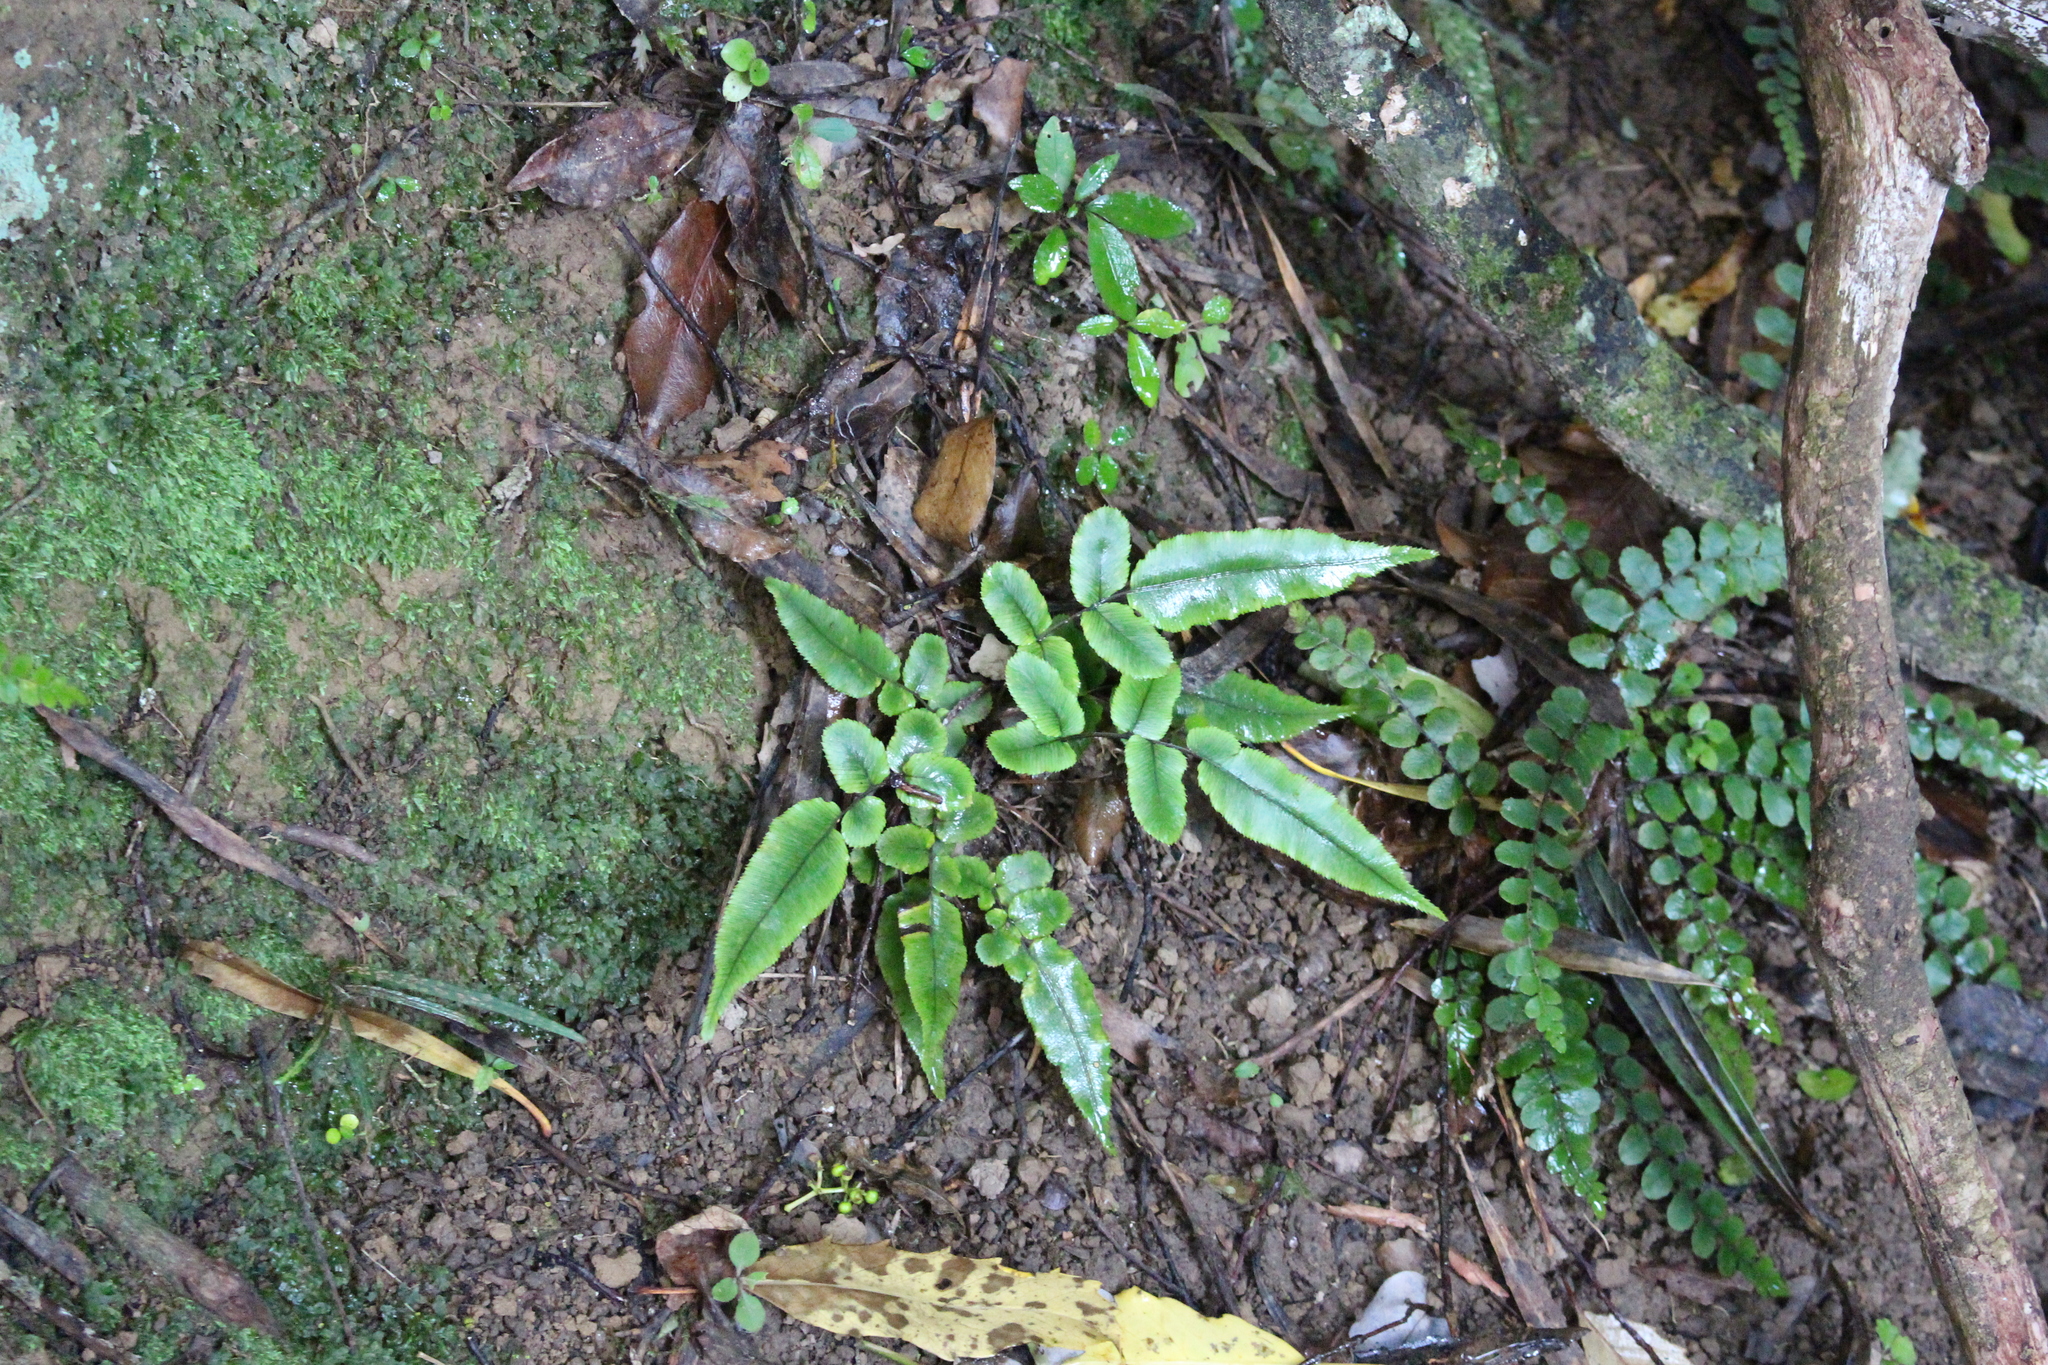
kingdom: Plantae
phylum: Tracheophyta
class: Polypodiopsida
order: Polypodiales
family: Blechnaceae
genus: Parablechnum
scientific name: Parablechnum procerum
